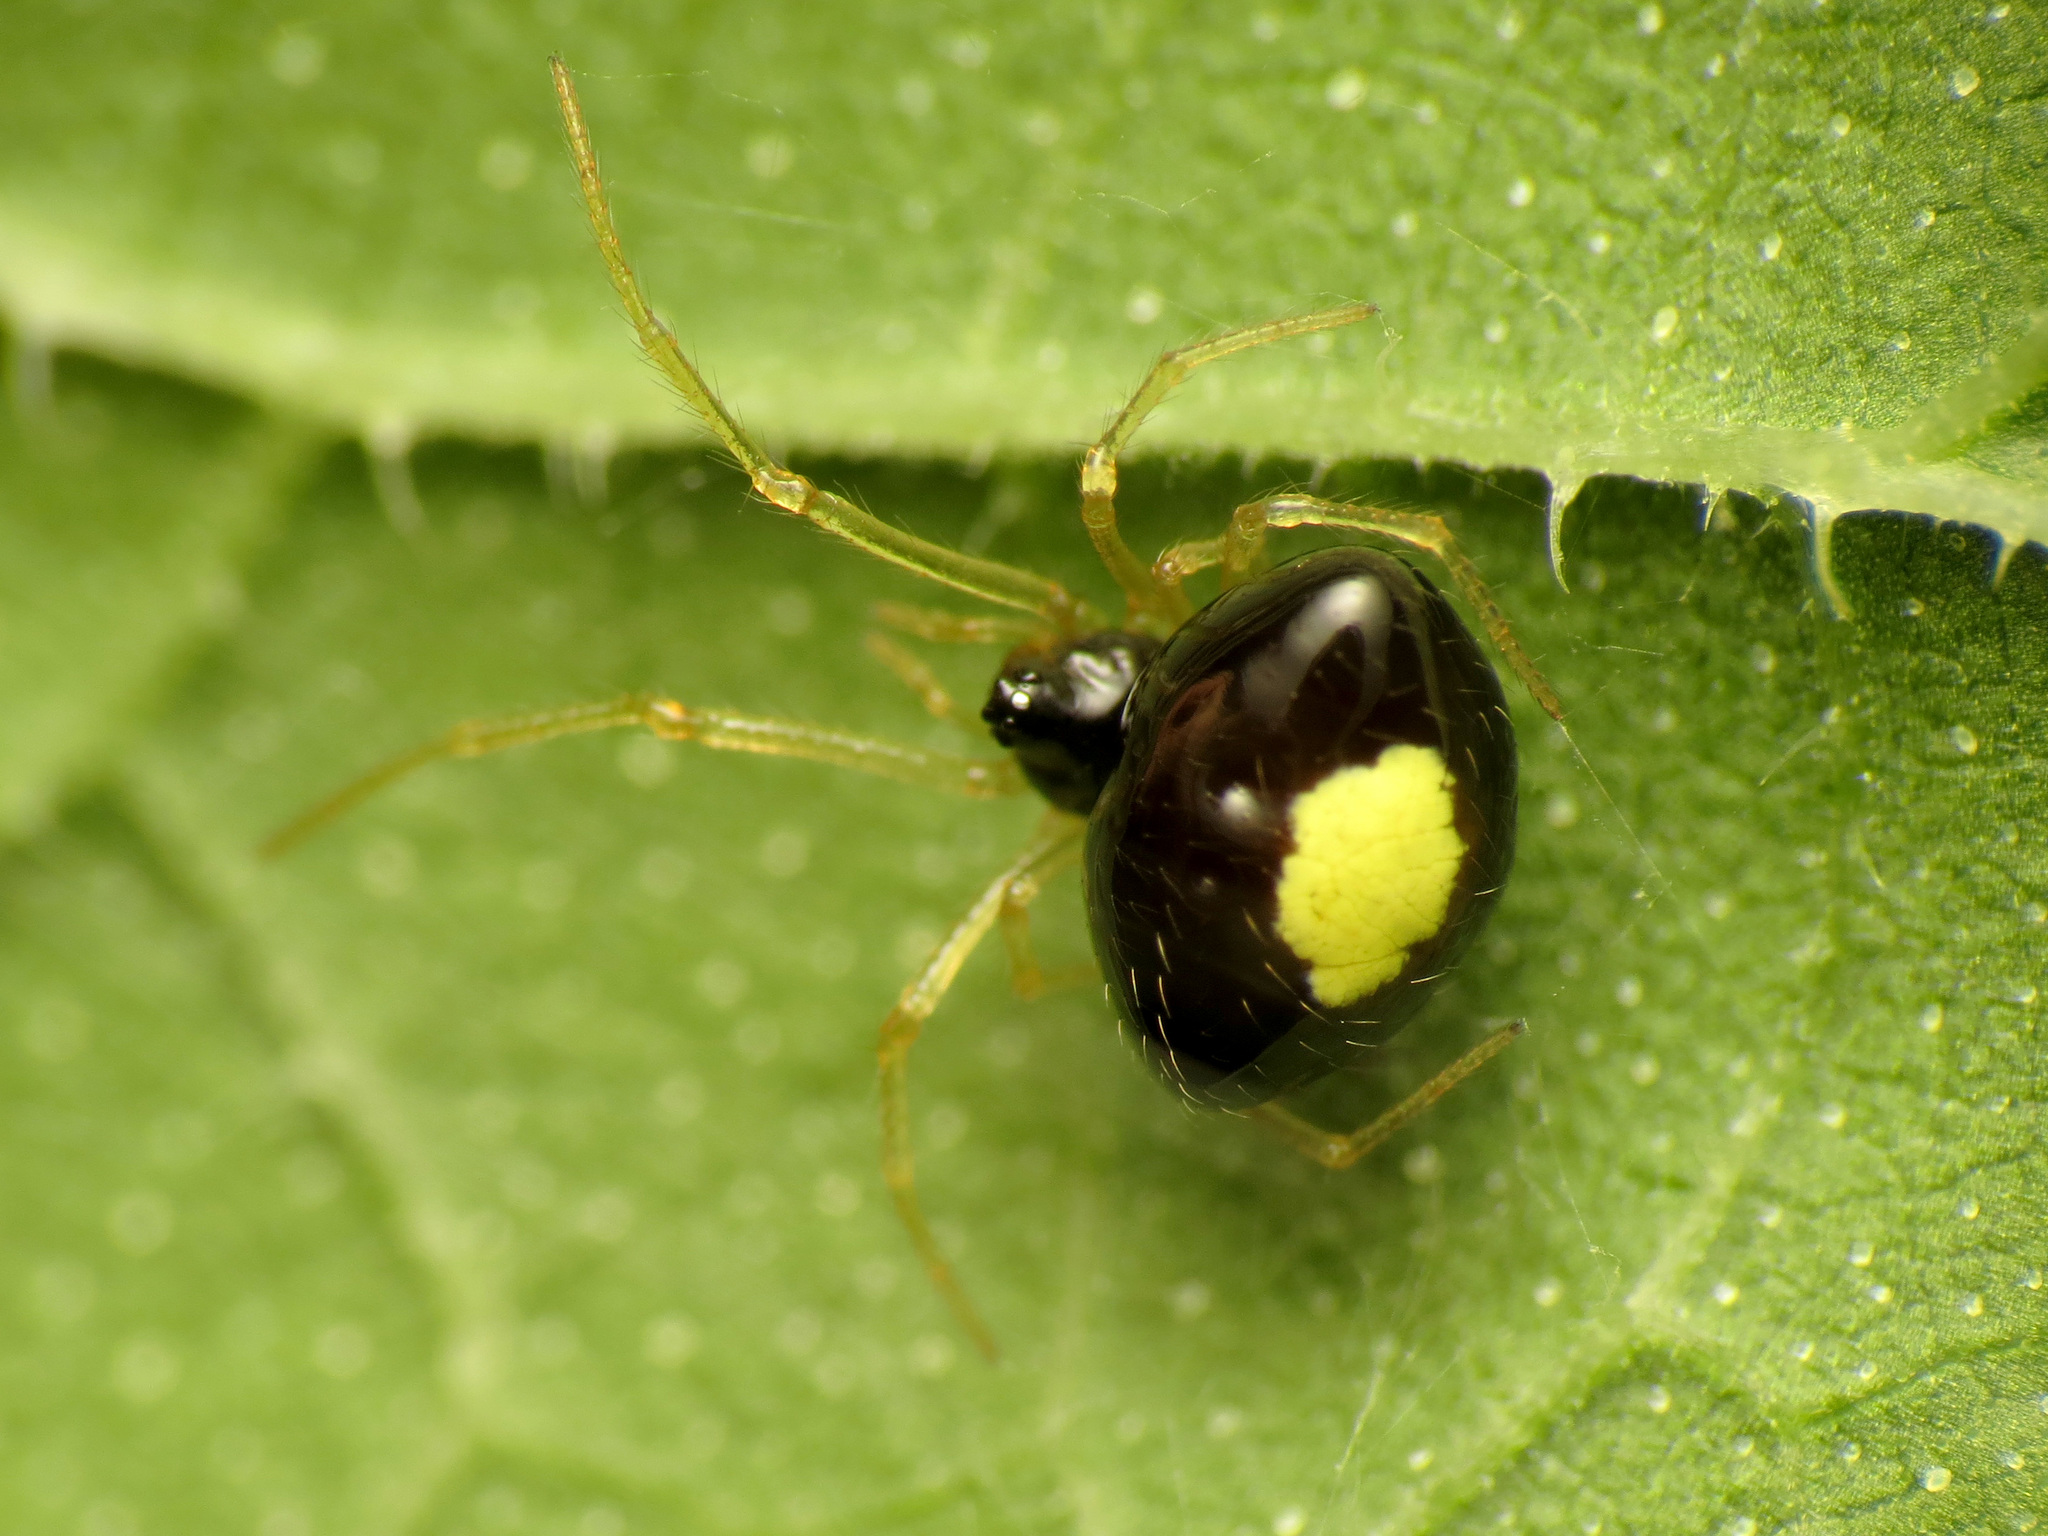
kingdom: Animalia
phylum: Arthropoda
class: Arachnida
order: Araneae
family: Theridiidae
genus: Theridula
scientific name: Theridula opulenta
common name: Cobweb spiders
